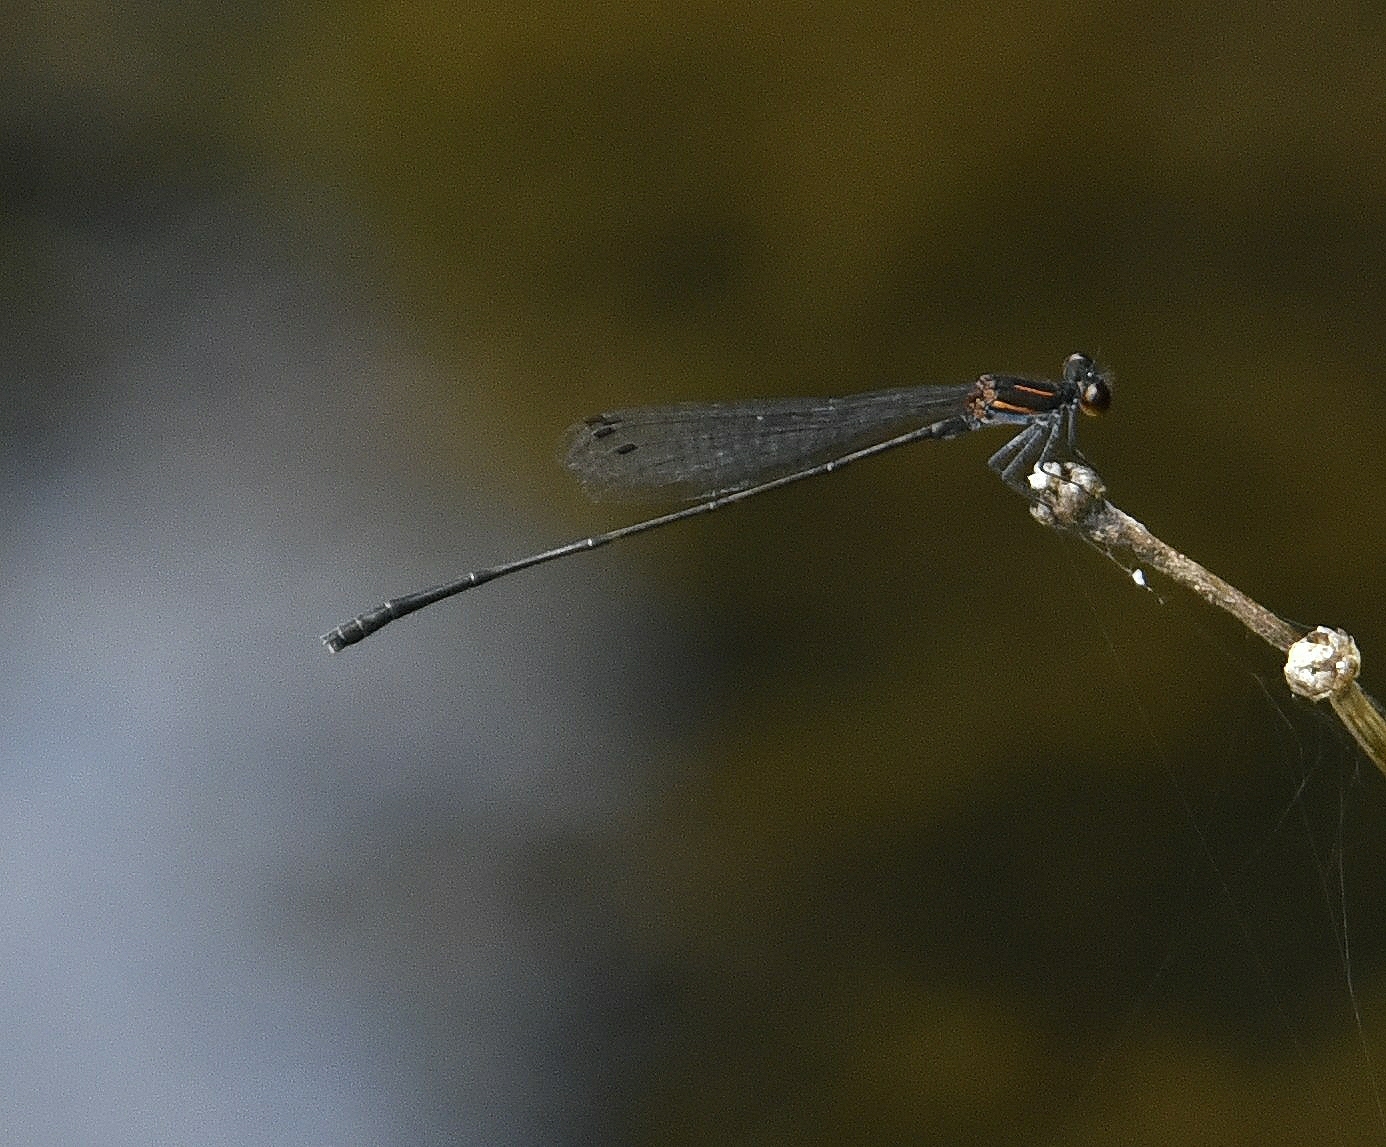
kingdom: Animalia
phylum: Arthropoda
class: Insecta
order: Odonata
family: Platycnemididae
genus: Prodasineura
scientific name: Prodasineura verticalis
